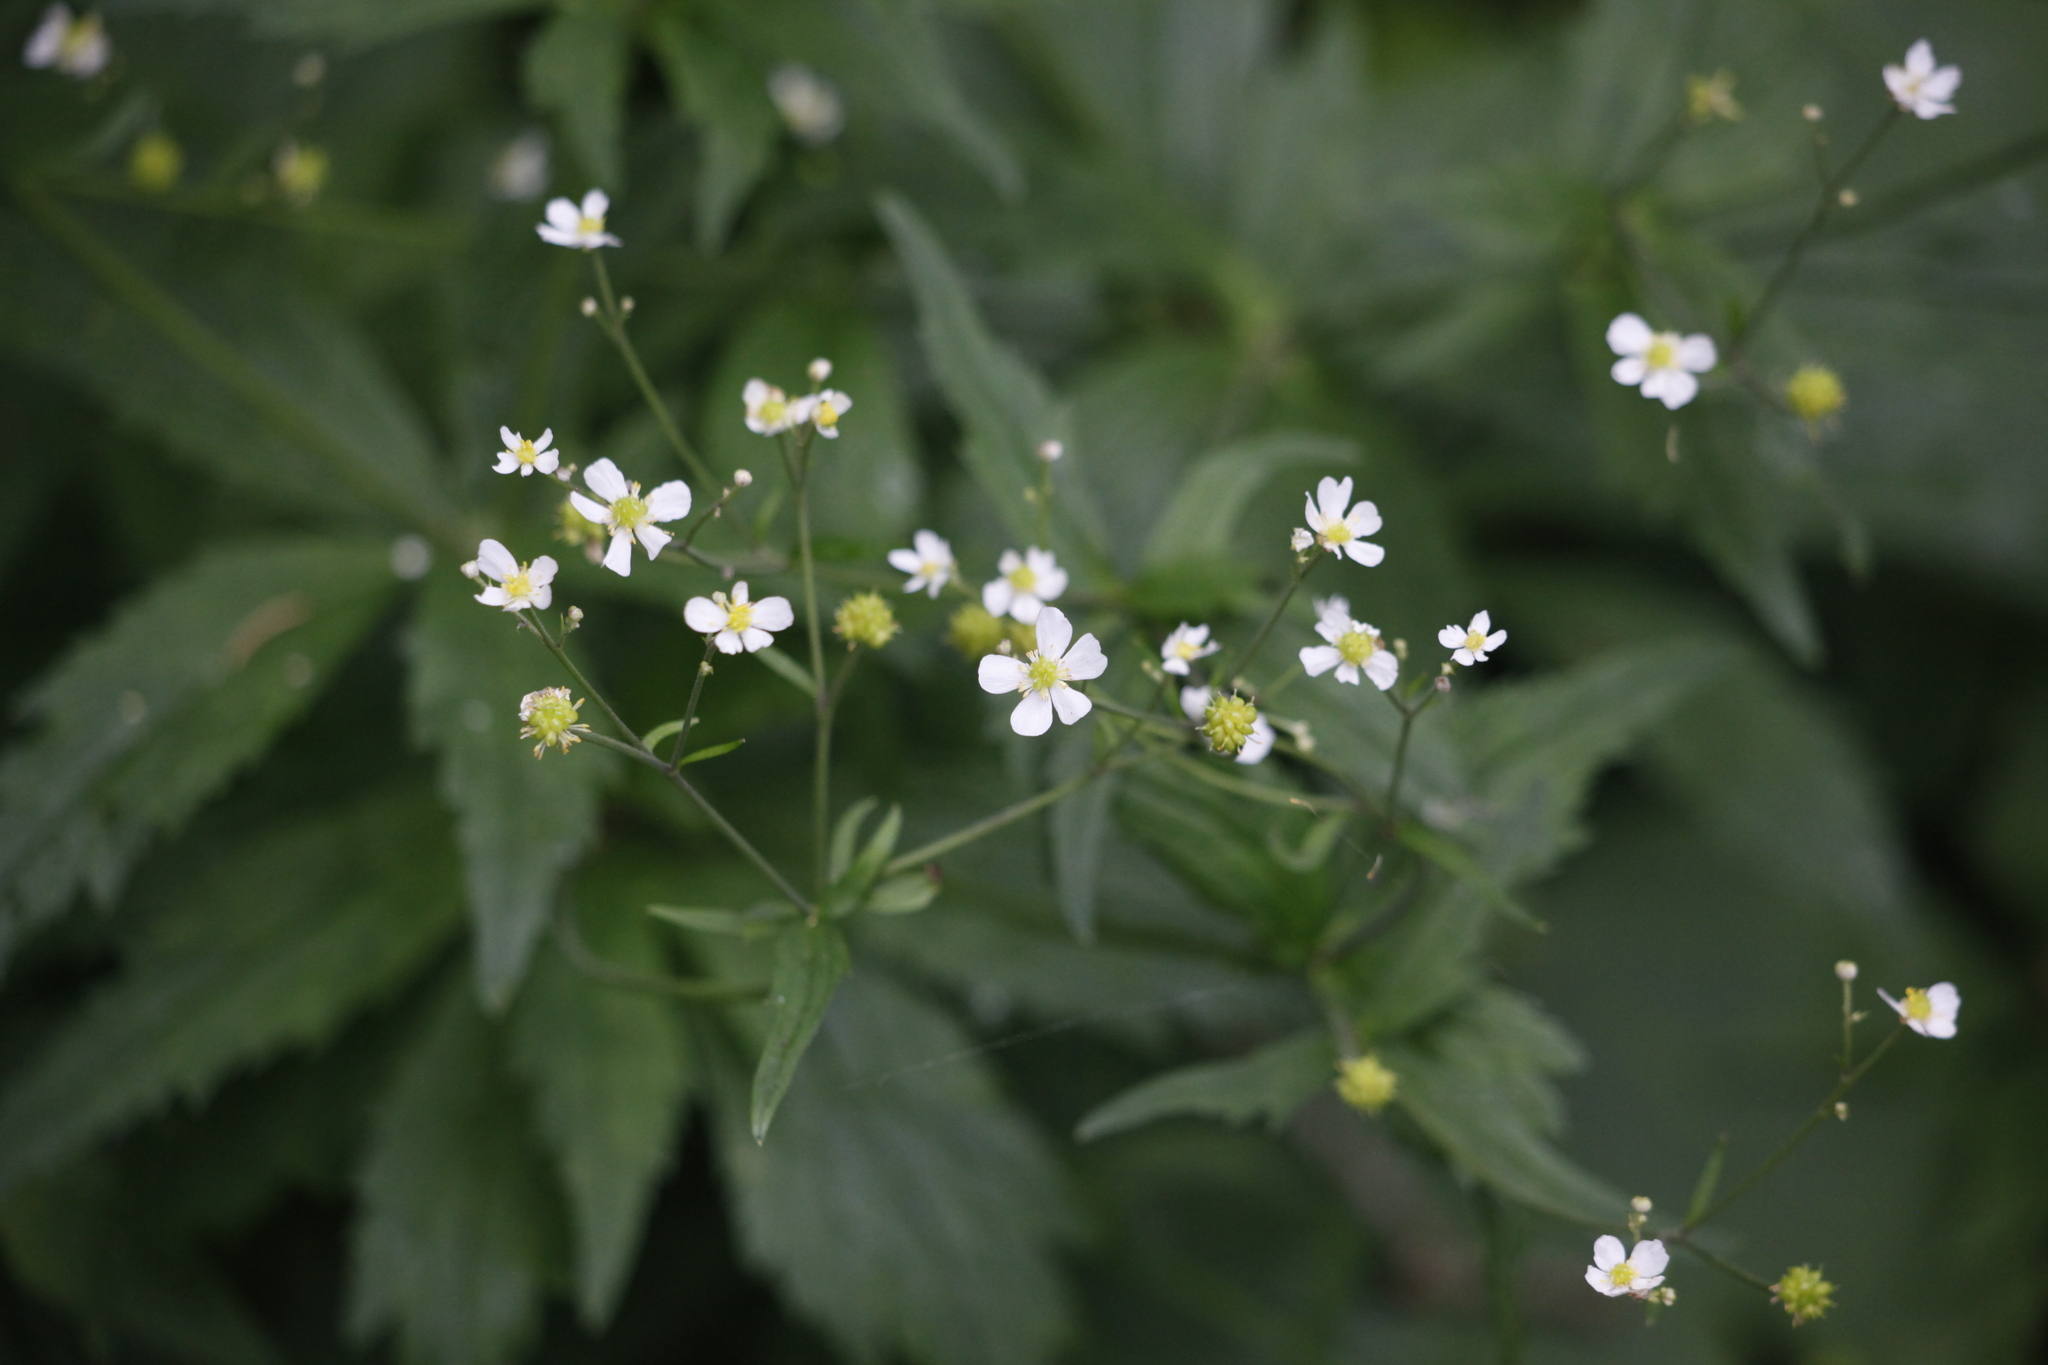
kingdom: Plantae
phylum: Tracheophyta
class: Magnoliopsida
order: Ranunculales
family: Ranunculaceae
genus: Ranunculus
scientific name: Ranunculus aconitifolius
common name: Aconite-leaved buttercup
